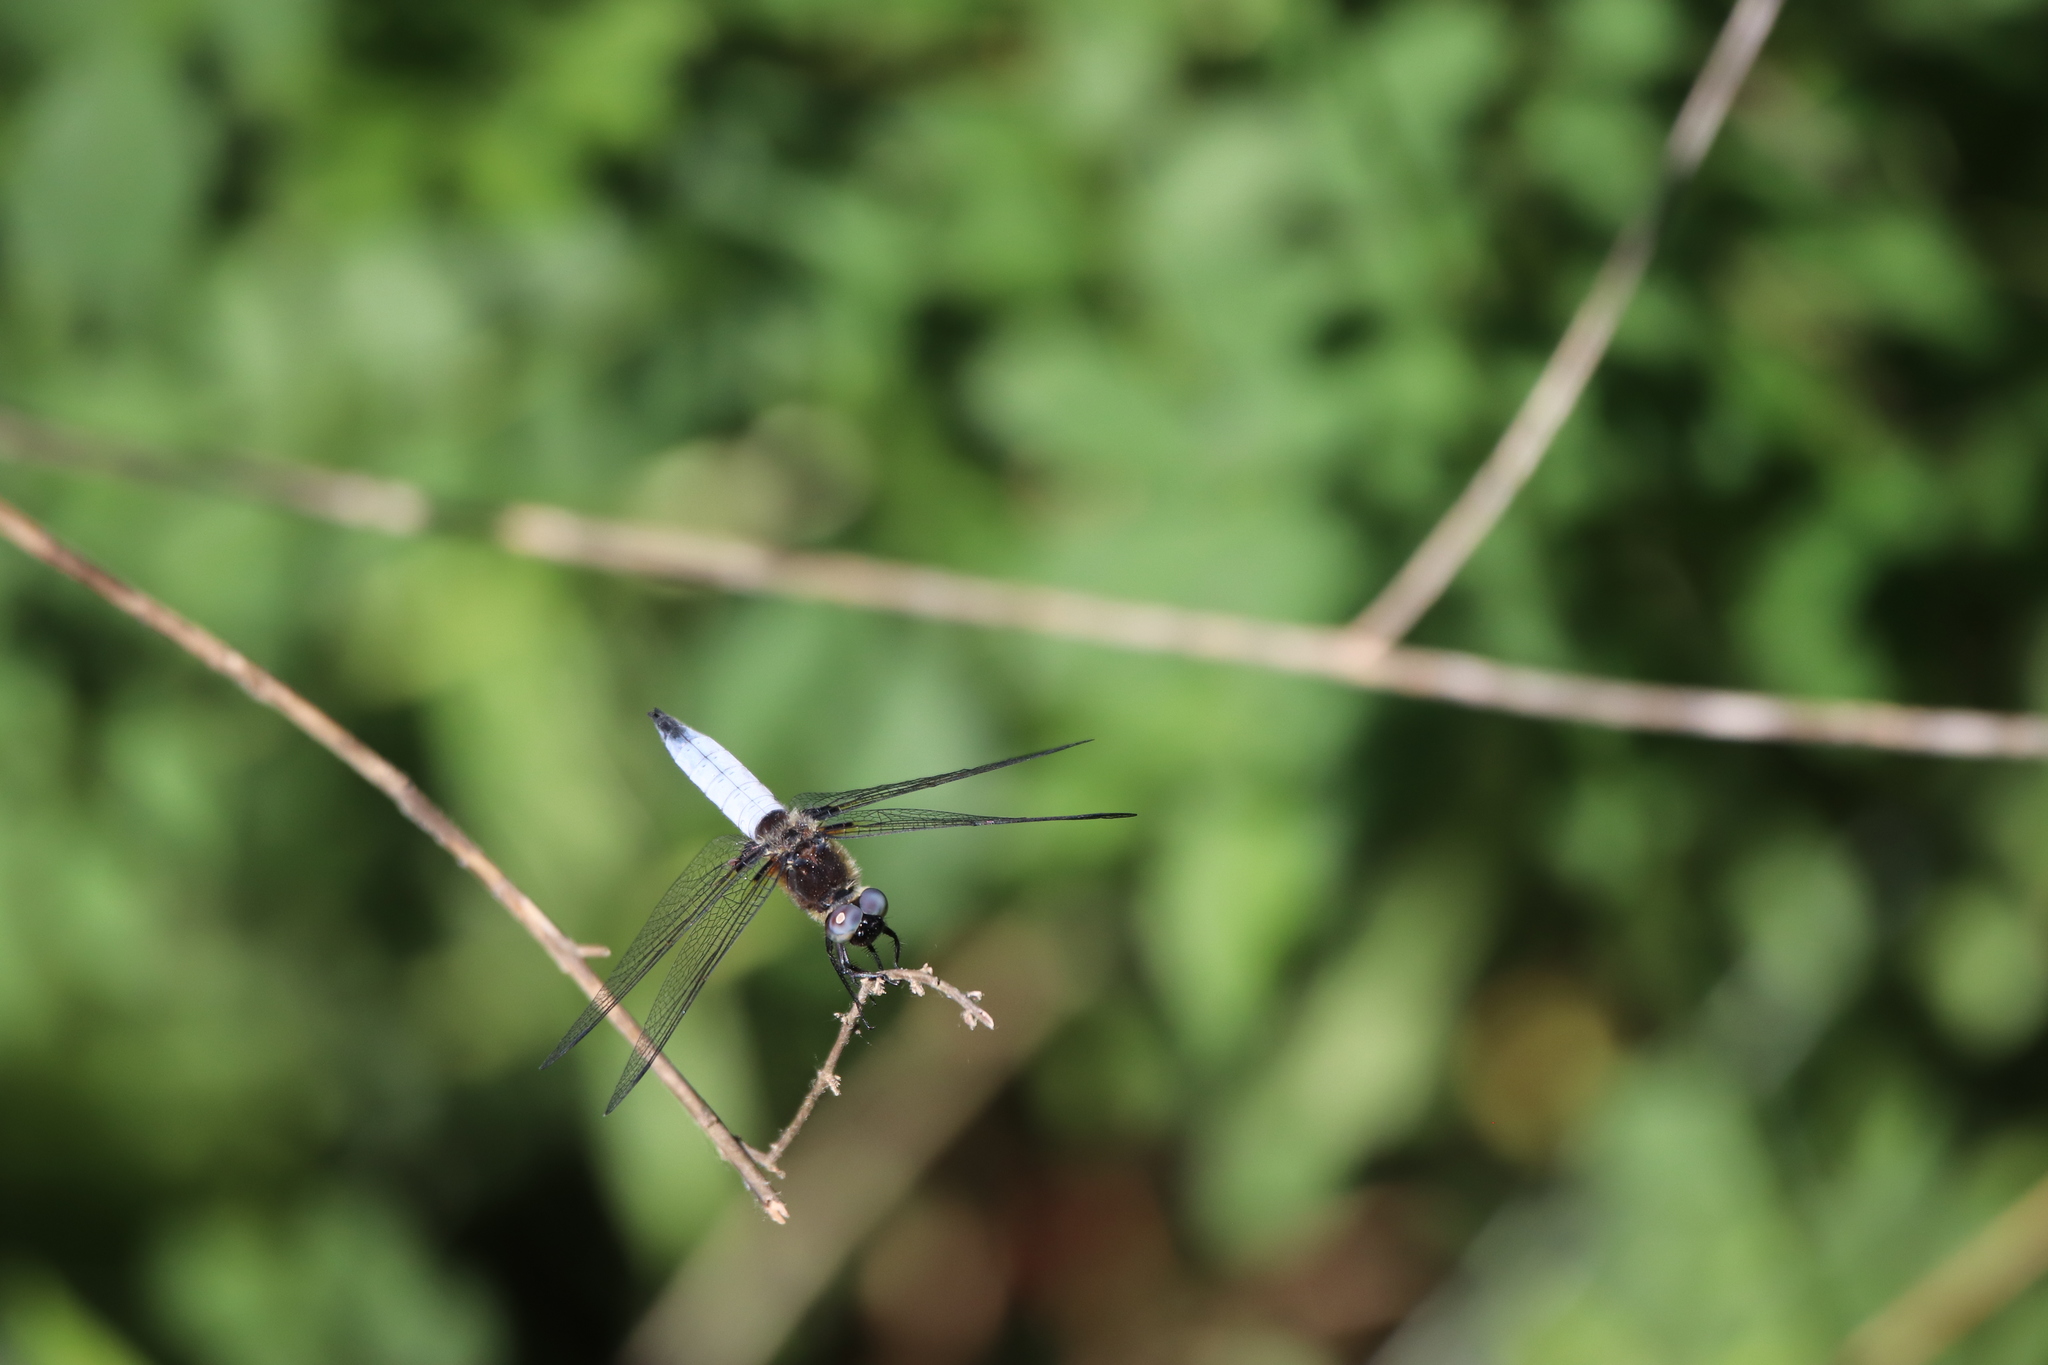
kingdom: Animalia
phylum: Arthropoda
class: Insecta
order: Odonata
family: Libellulidae
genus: Libellula
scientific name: Libellula fulva
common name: Blue chaser
